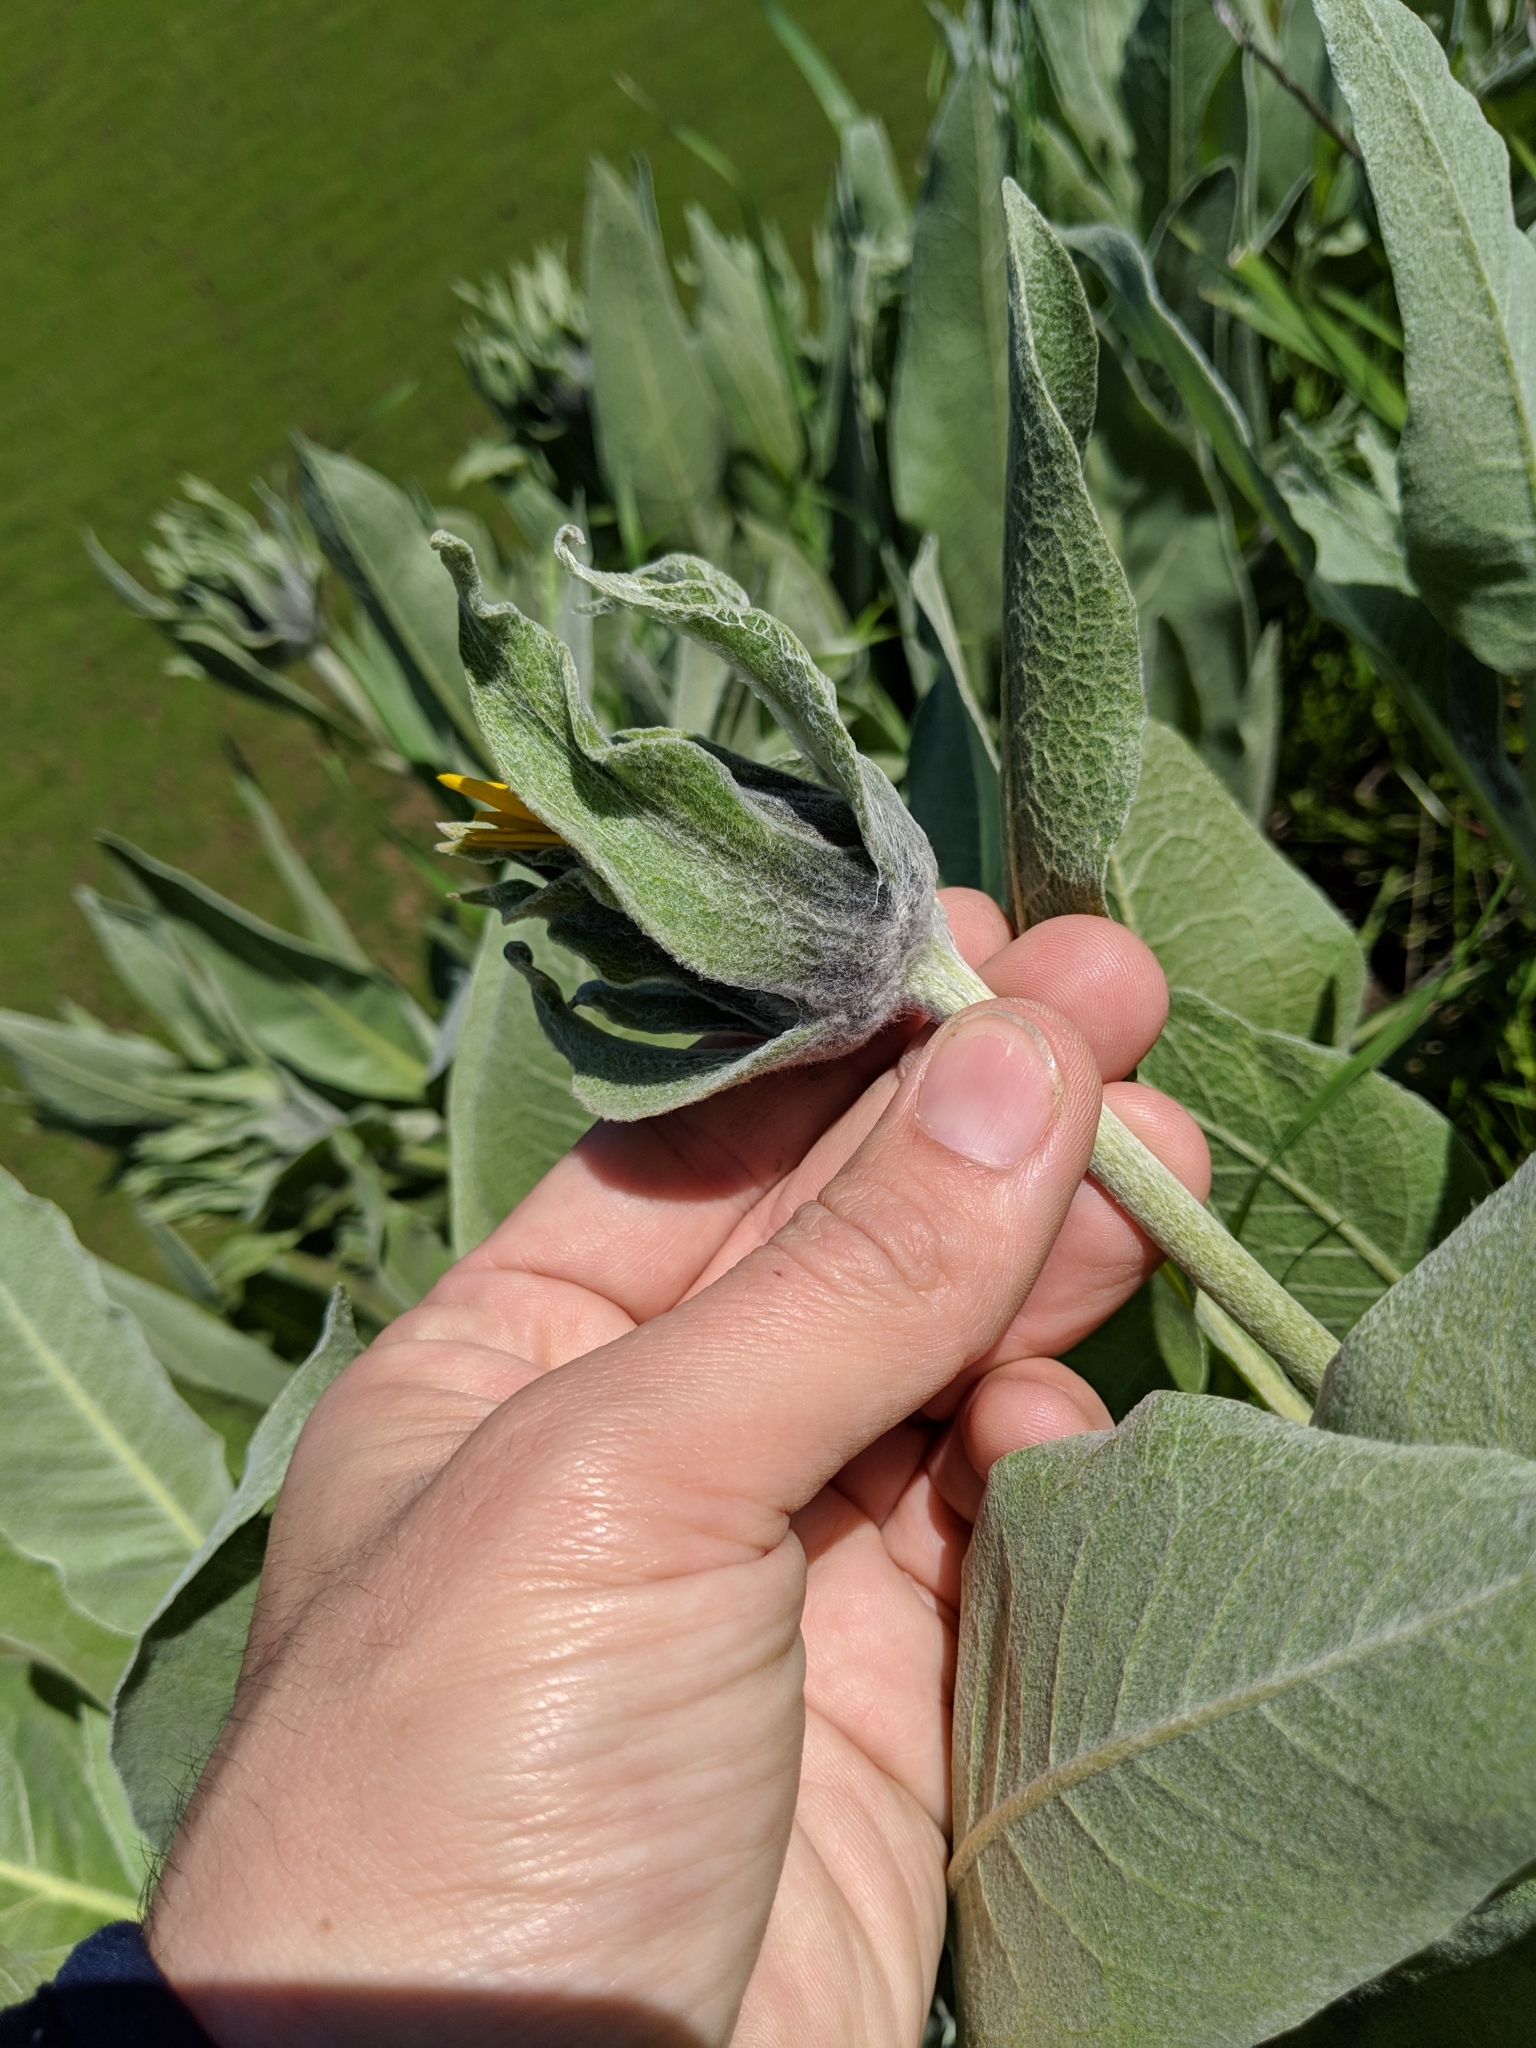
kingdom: Plantae
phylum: Tracheophyta
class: Magnoliopsida
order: Asterales
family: Asteraceae
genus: Wyethia
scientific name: Wyethia helenioides
